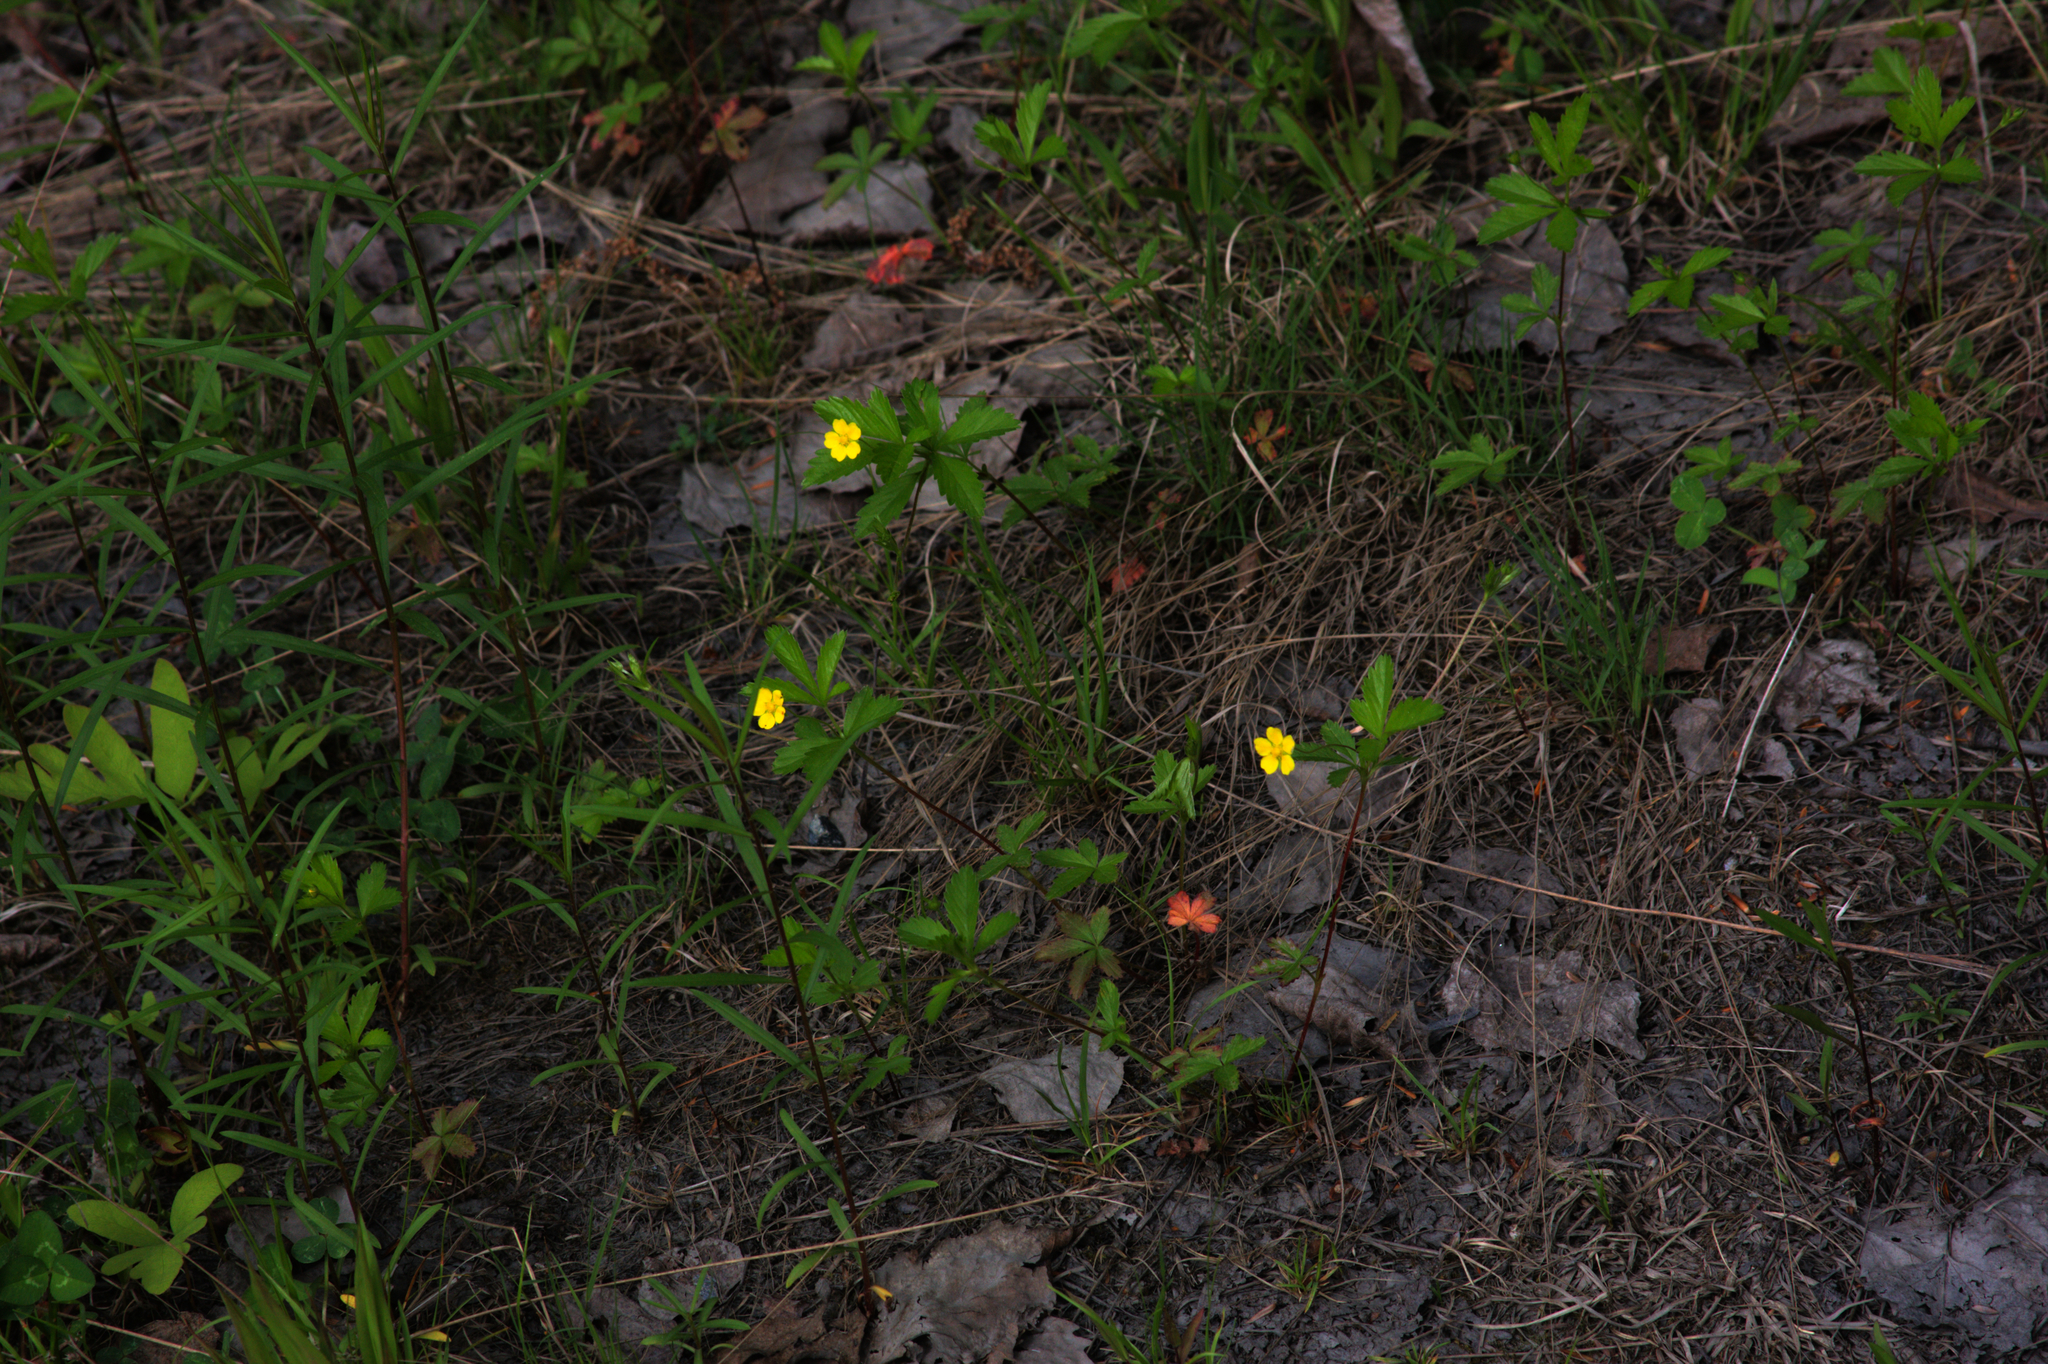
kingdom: Plantae
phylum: Tracheophyta
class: Magnoliopsida
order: Rosales
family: Rosaceae
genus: Potentilla
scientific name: Potentilla simplex
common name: Old field cinquefoil
